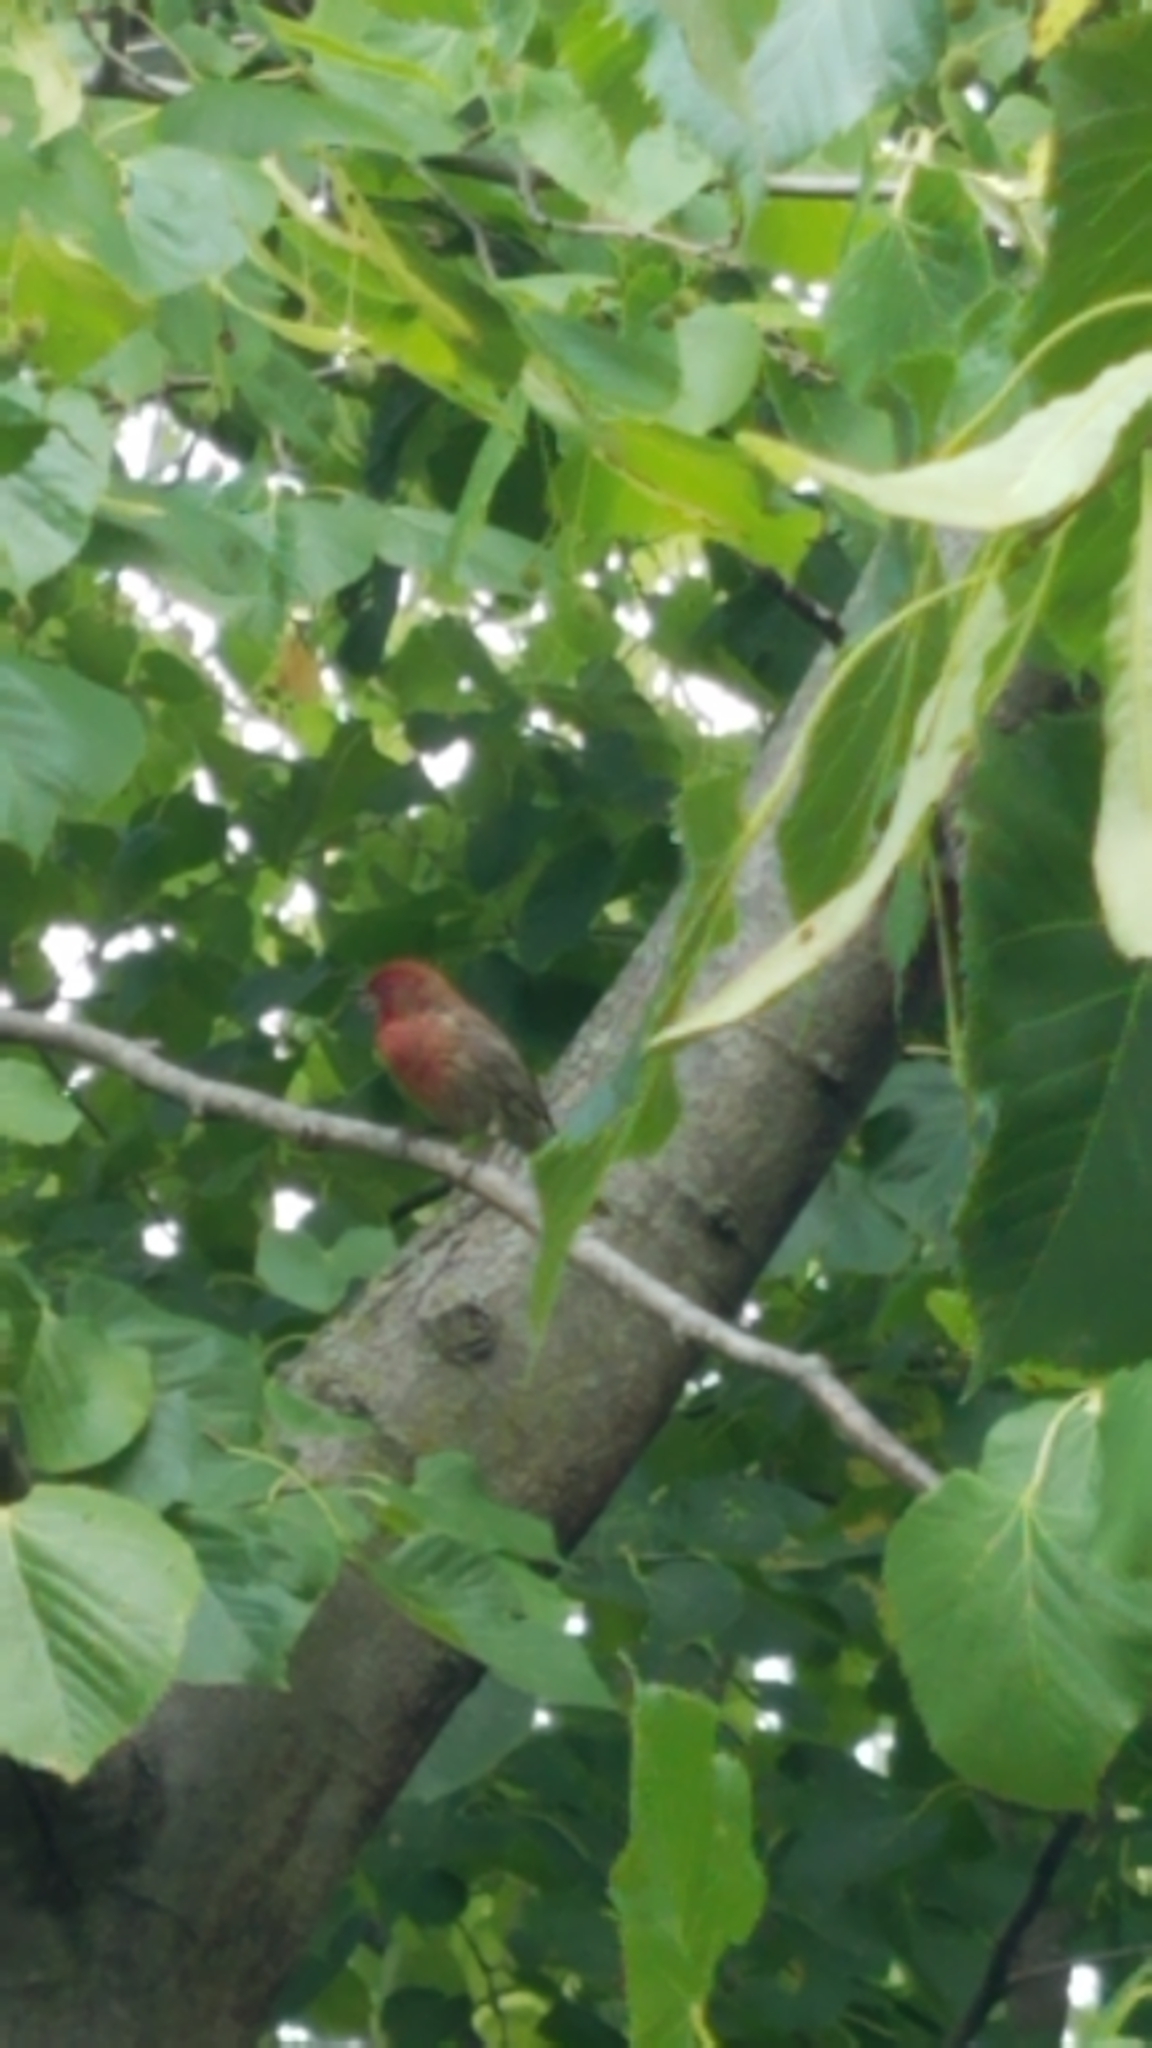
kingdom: Animalia
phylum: Chordata
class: Aves
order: Passeriformes
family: Fringillidae
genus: Haemorhous
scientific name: Haemorhous mexicanus
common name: House finch
